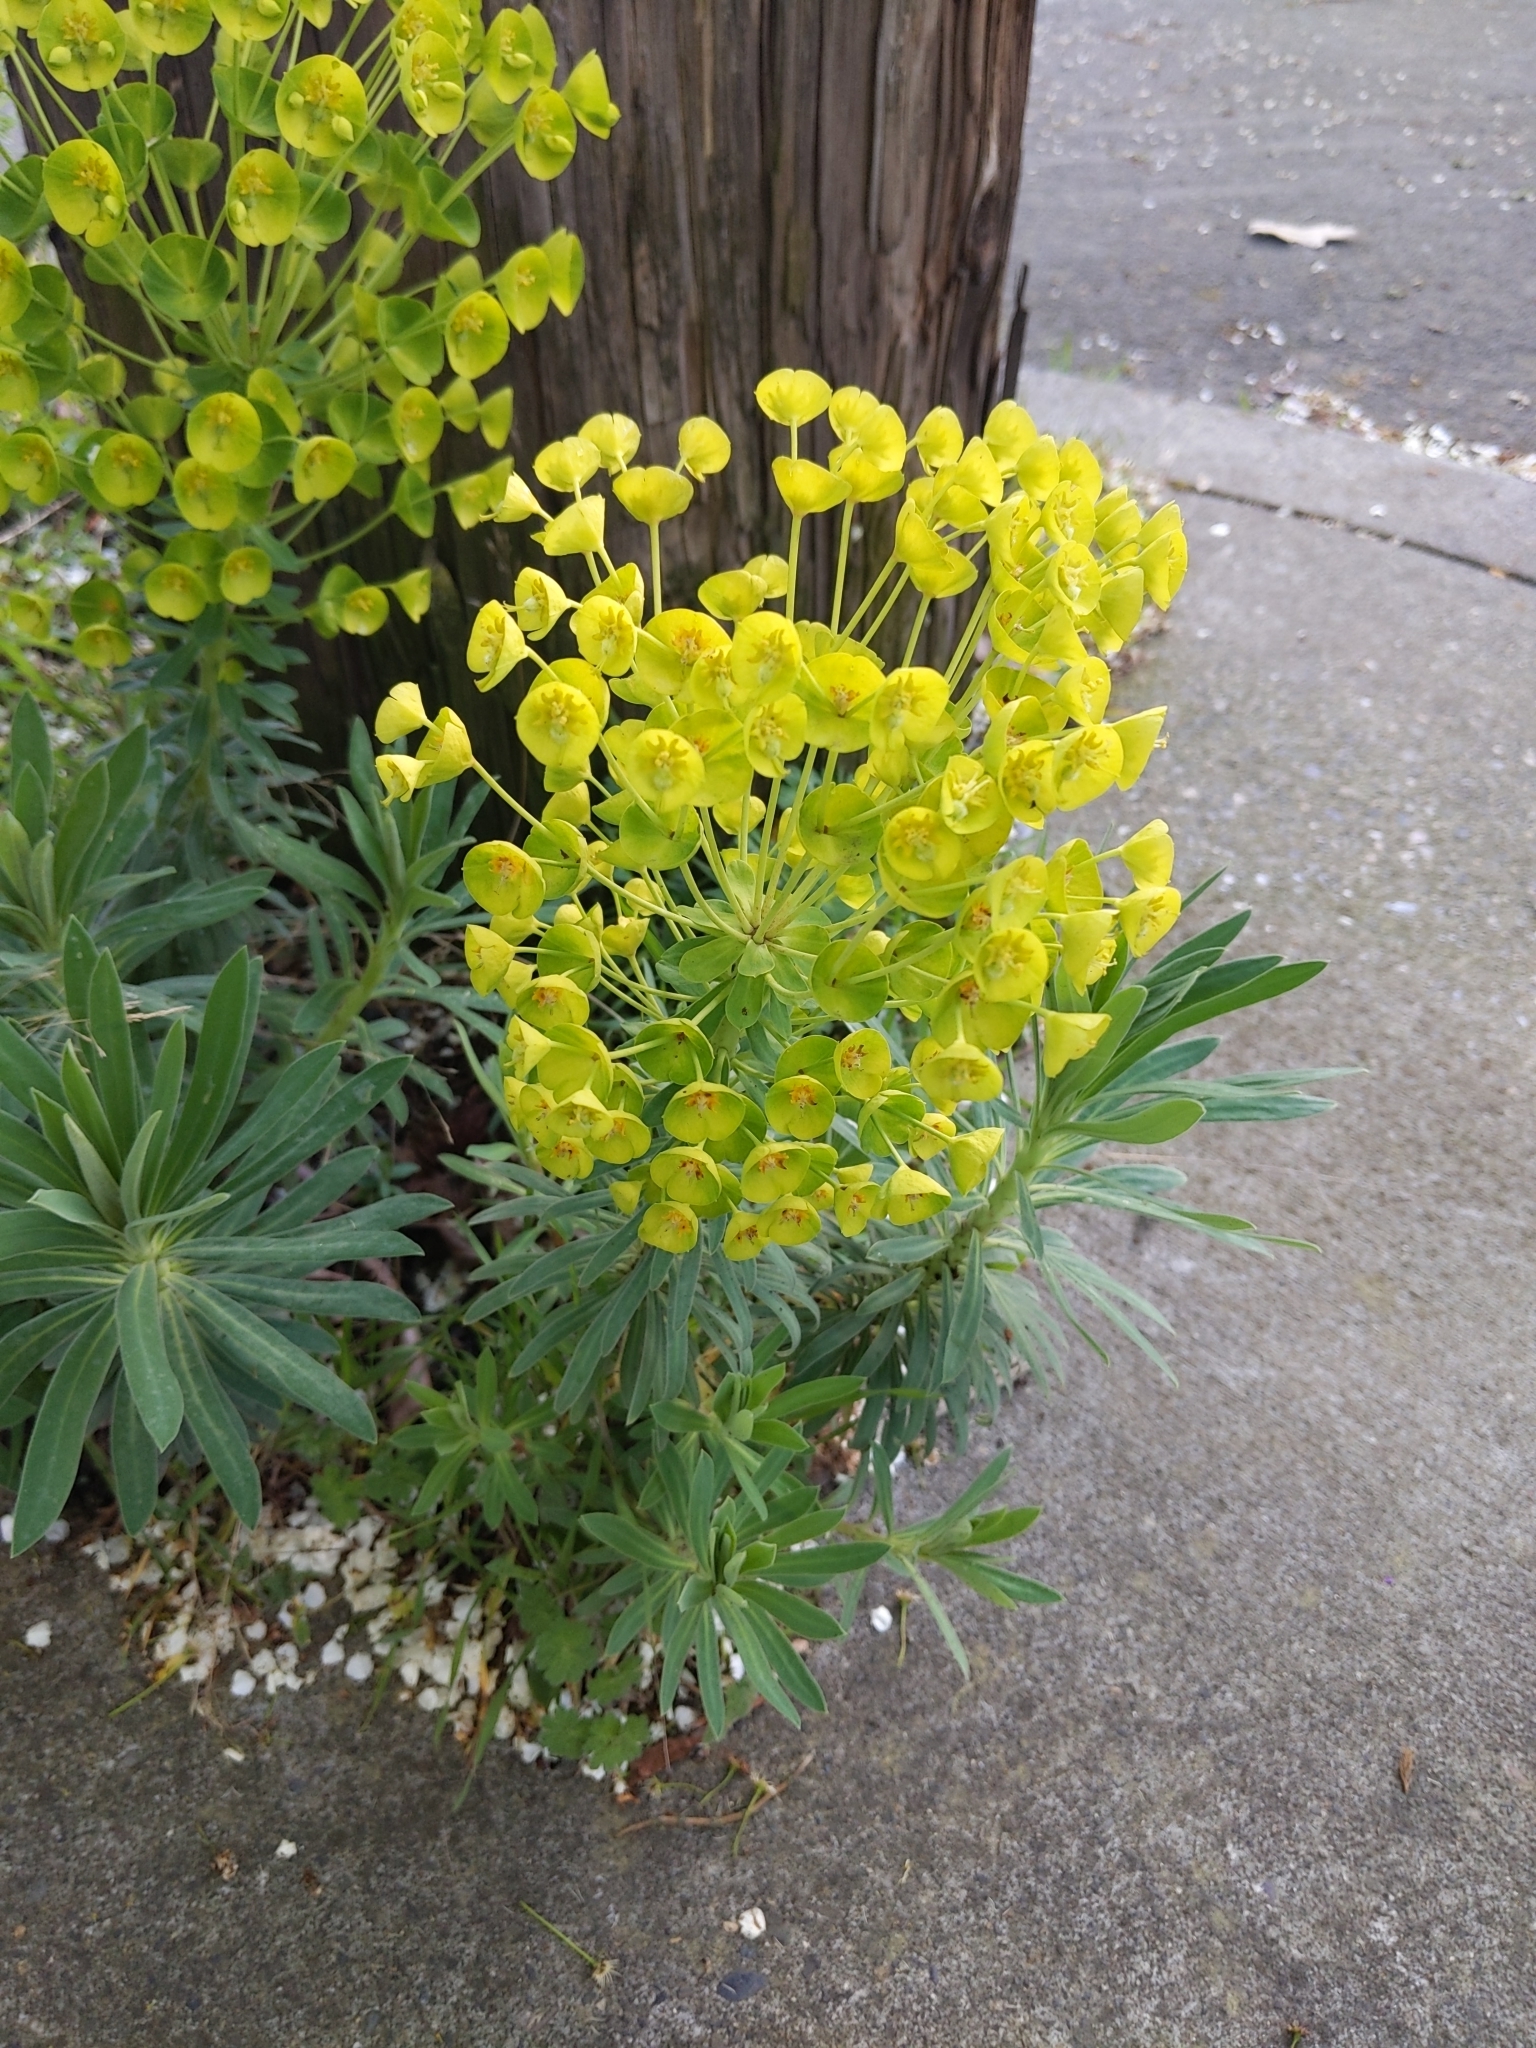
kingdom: Plantae
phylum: Tracheophyta
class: Magnoliopsida
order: Malpighiales
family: Euphorbiaceae
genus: Euphorbia
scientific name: Euphorbia characias
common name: Mediterranean spurge
